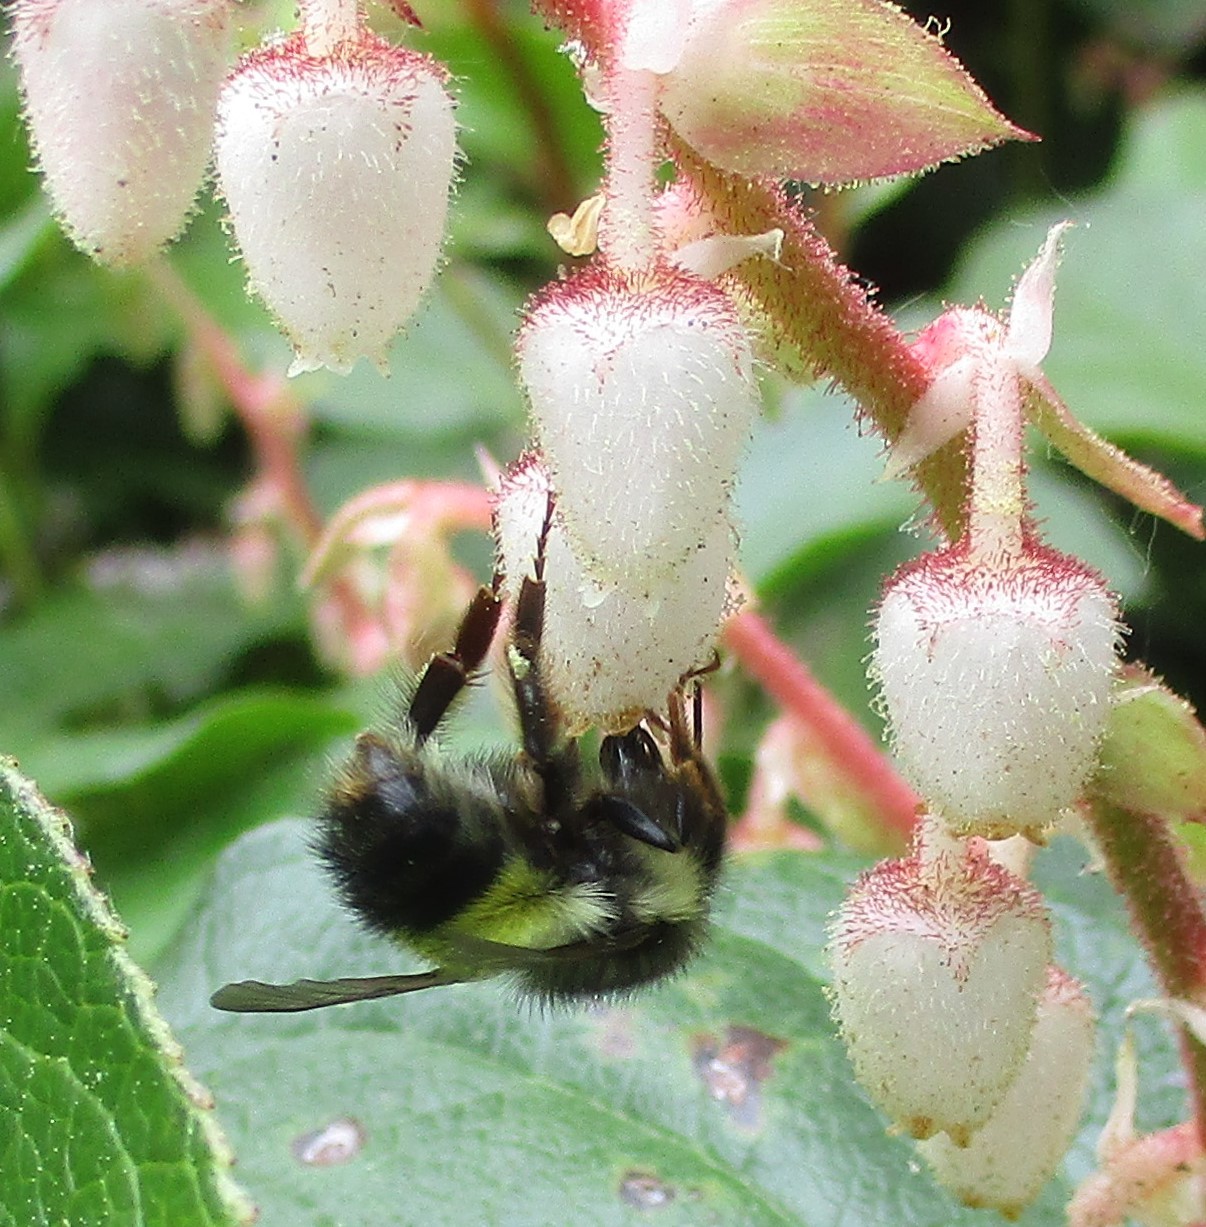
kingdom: Animalia
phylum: Arthropoda
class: Insecta
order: Hymenoptera
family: Apidae
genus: Bombus
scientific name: Bombus flavifrons
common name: Yellow head bumble bee
